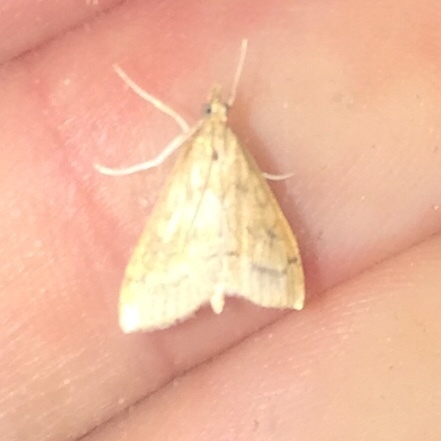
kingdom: Animalia
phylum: Arthropoda
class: Insecta
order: Lepidoptera
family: Crambidae
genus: Udea
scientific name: Udea rubigalis
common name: Celery leaftier moth
